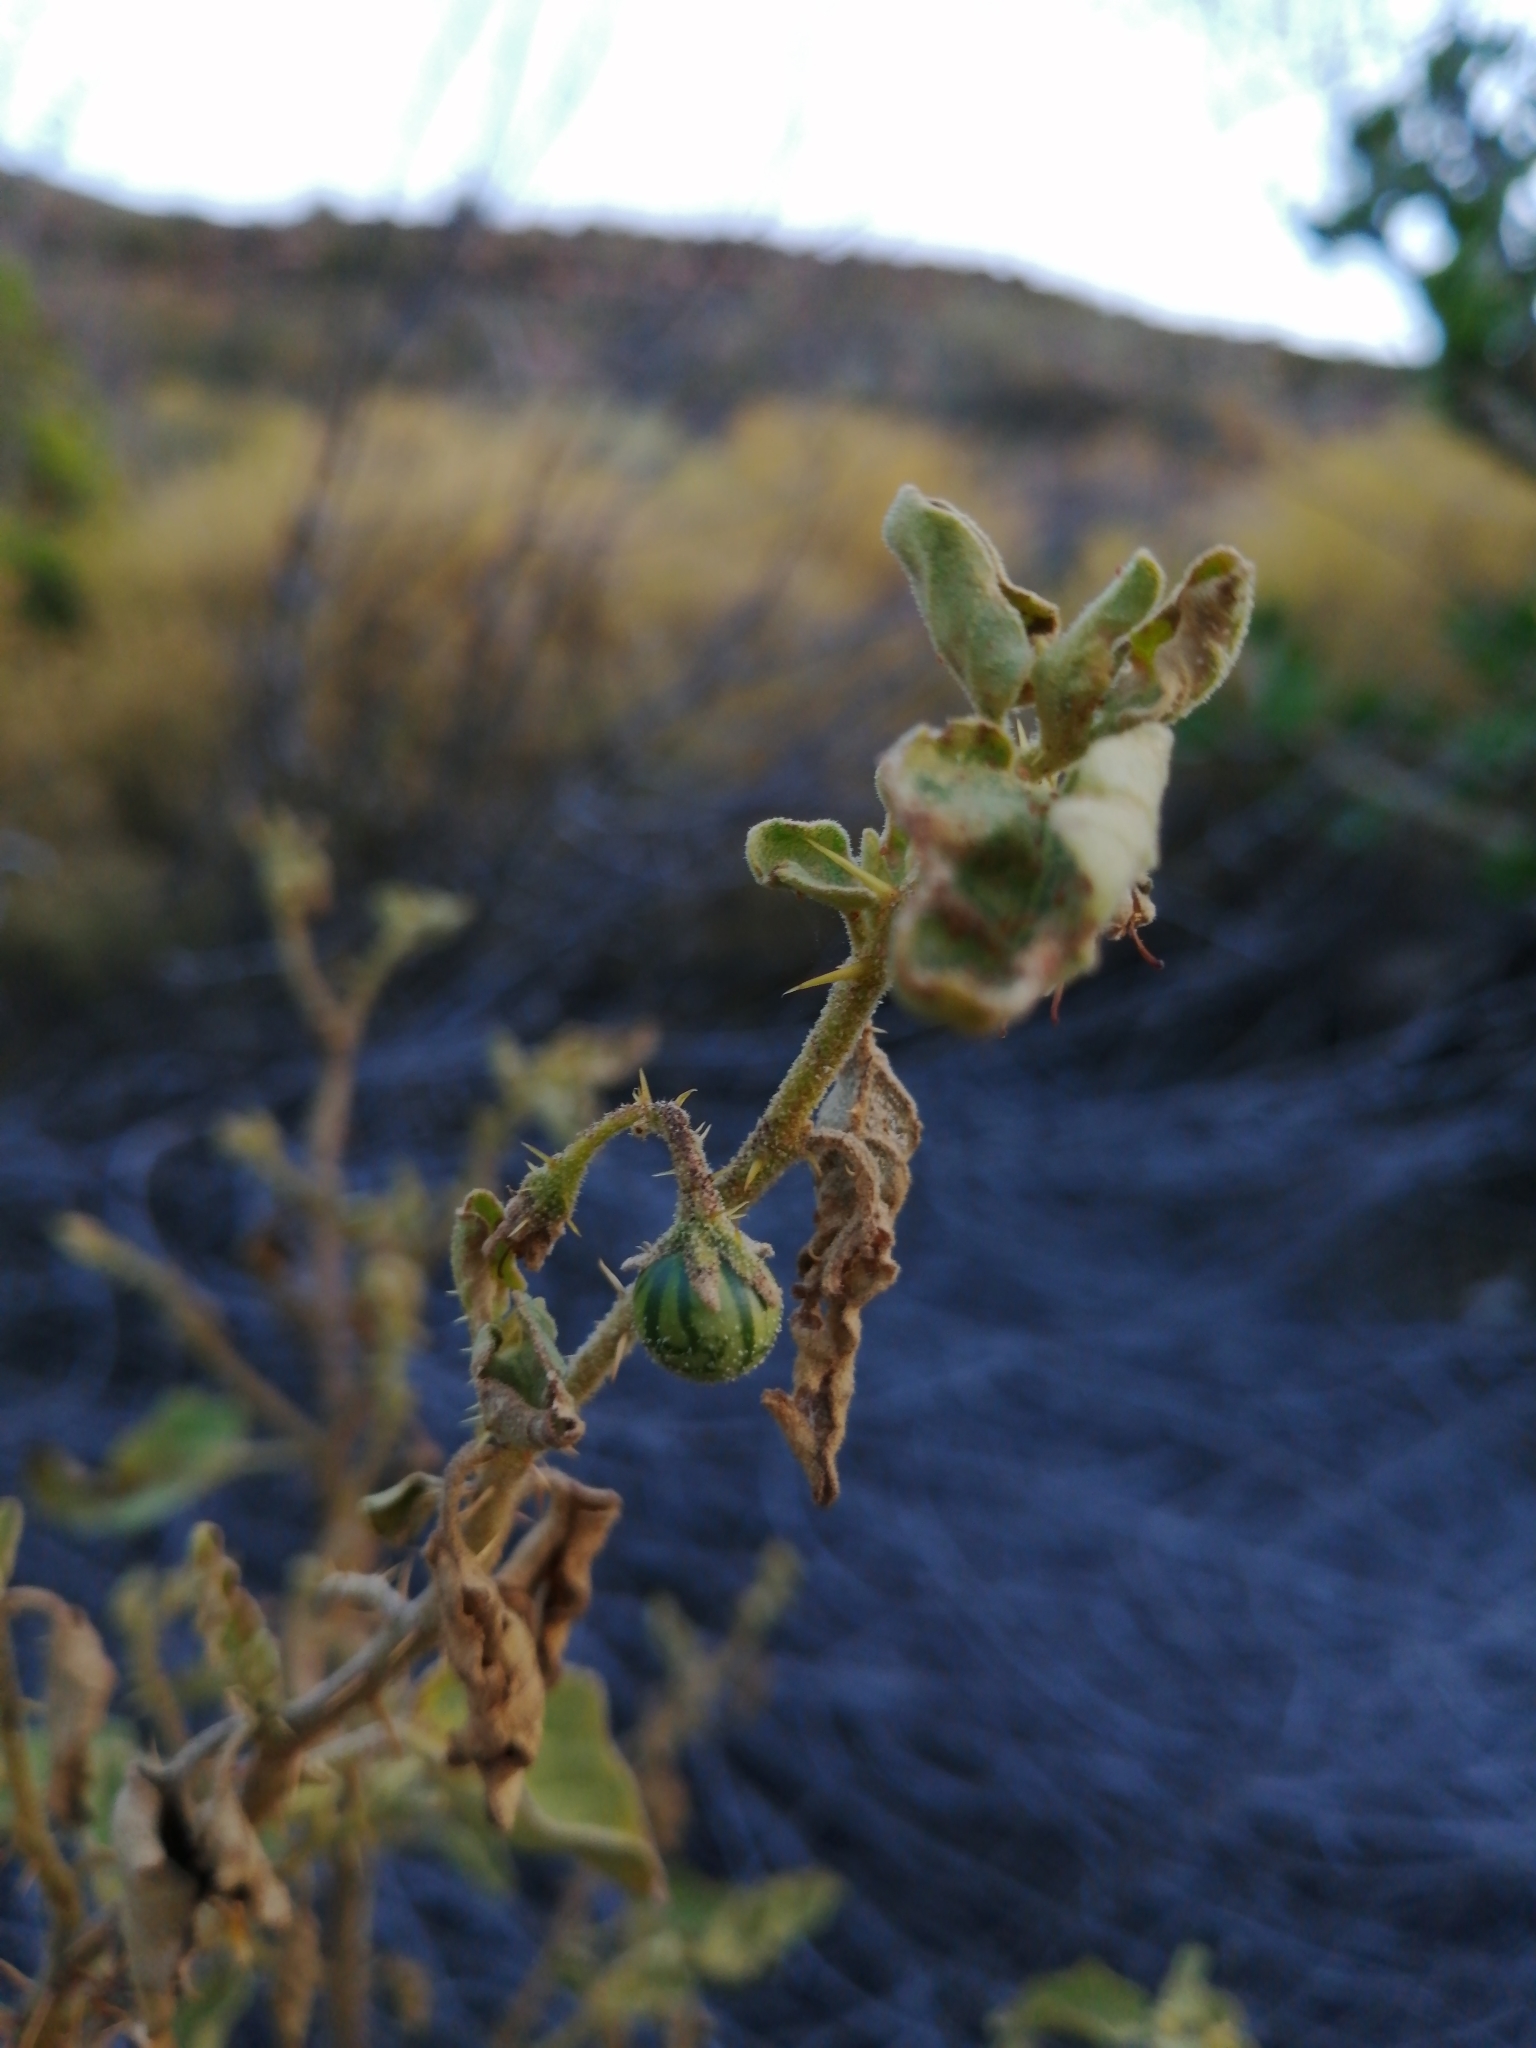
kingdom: Plantae
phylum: Tracheophyta
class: Magnoliopsida
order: Solanales
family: Solanaceae
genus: Solanum
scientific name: Solanum tomentosum
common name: Wild aubergine
